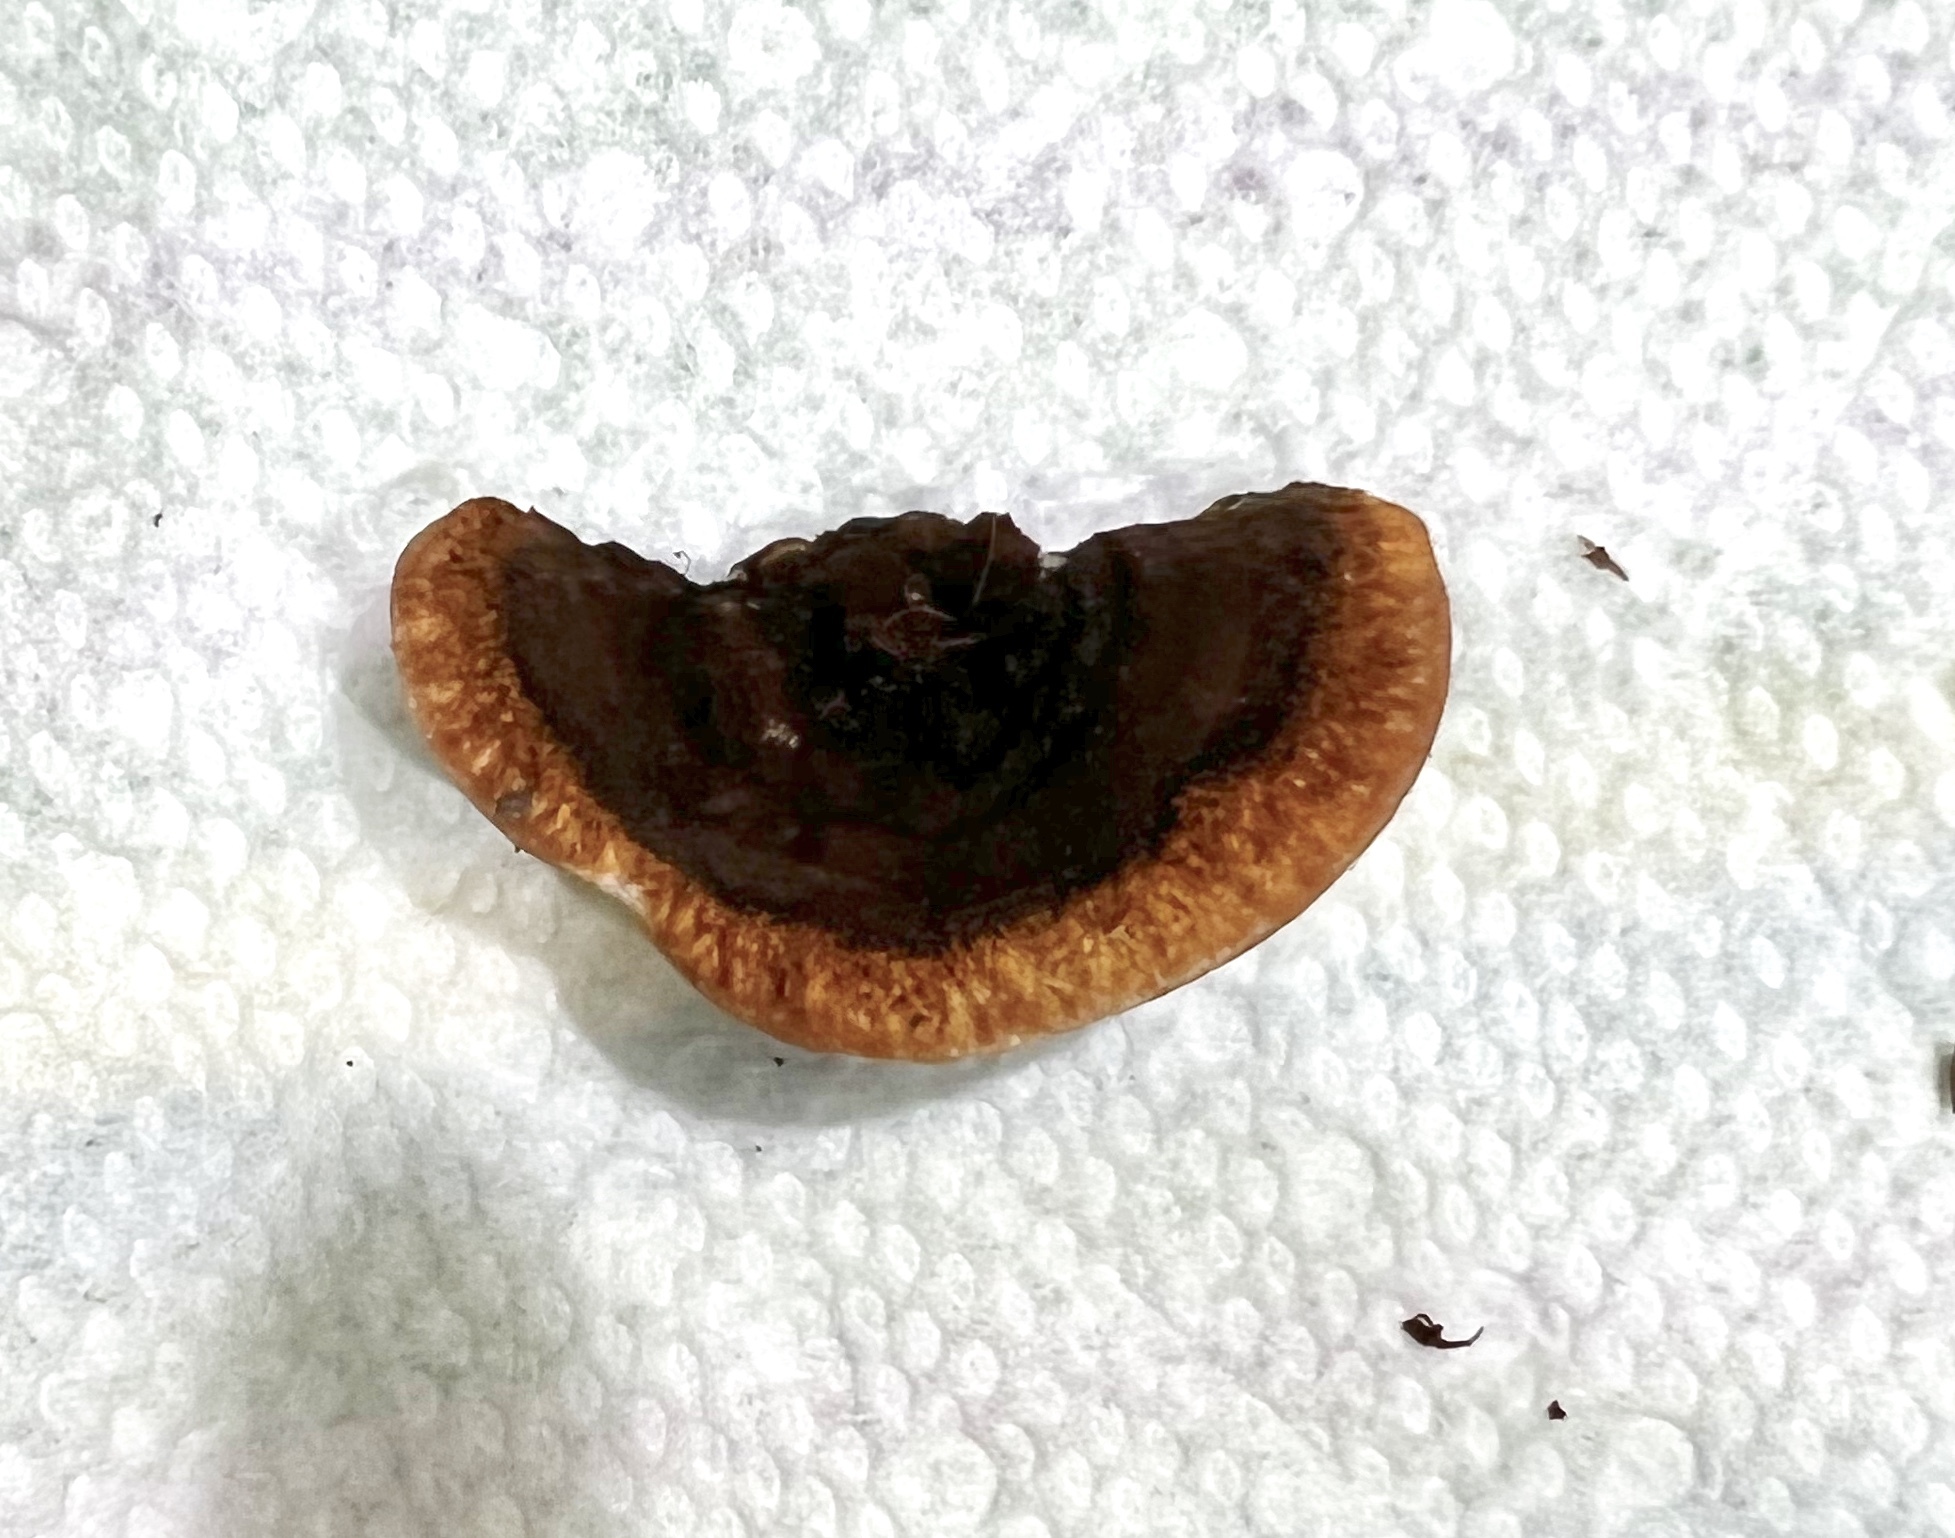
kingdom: Fungi
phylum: Basidiomycota
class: Agaricomycetes
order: Gloeophyllales
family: Gloeophyllaceae
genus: Gloeophyllum
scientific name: Gloeophyllum sepiarium
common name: Conifer mazegill
